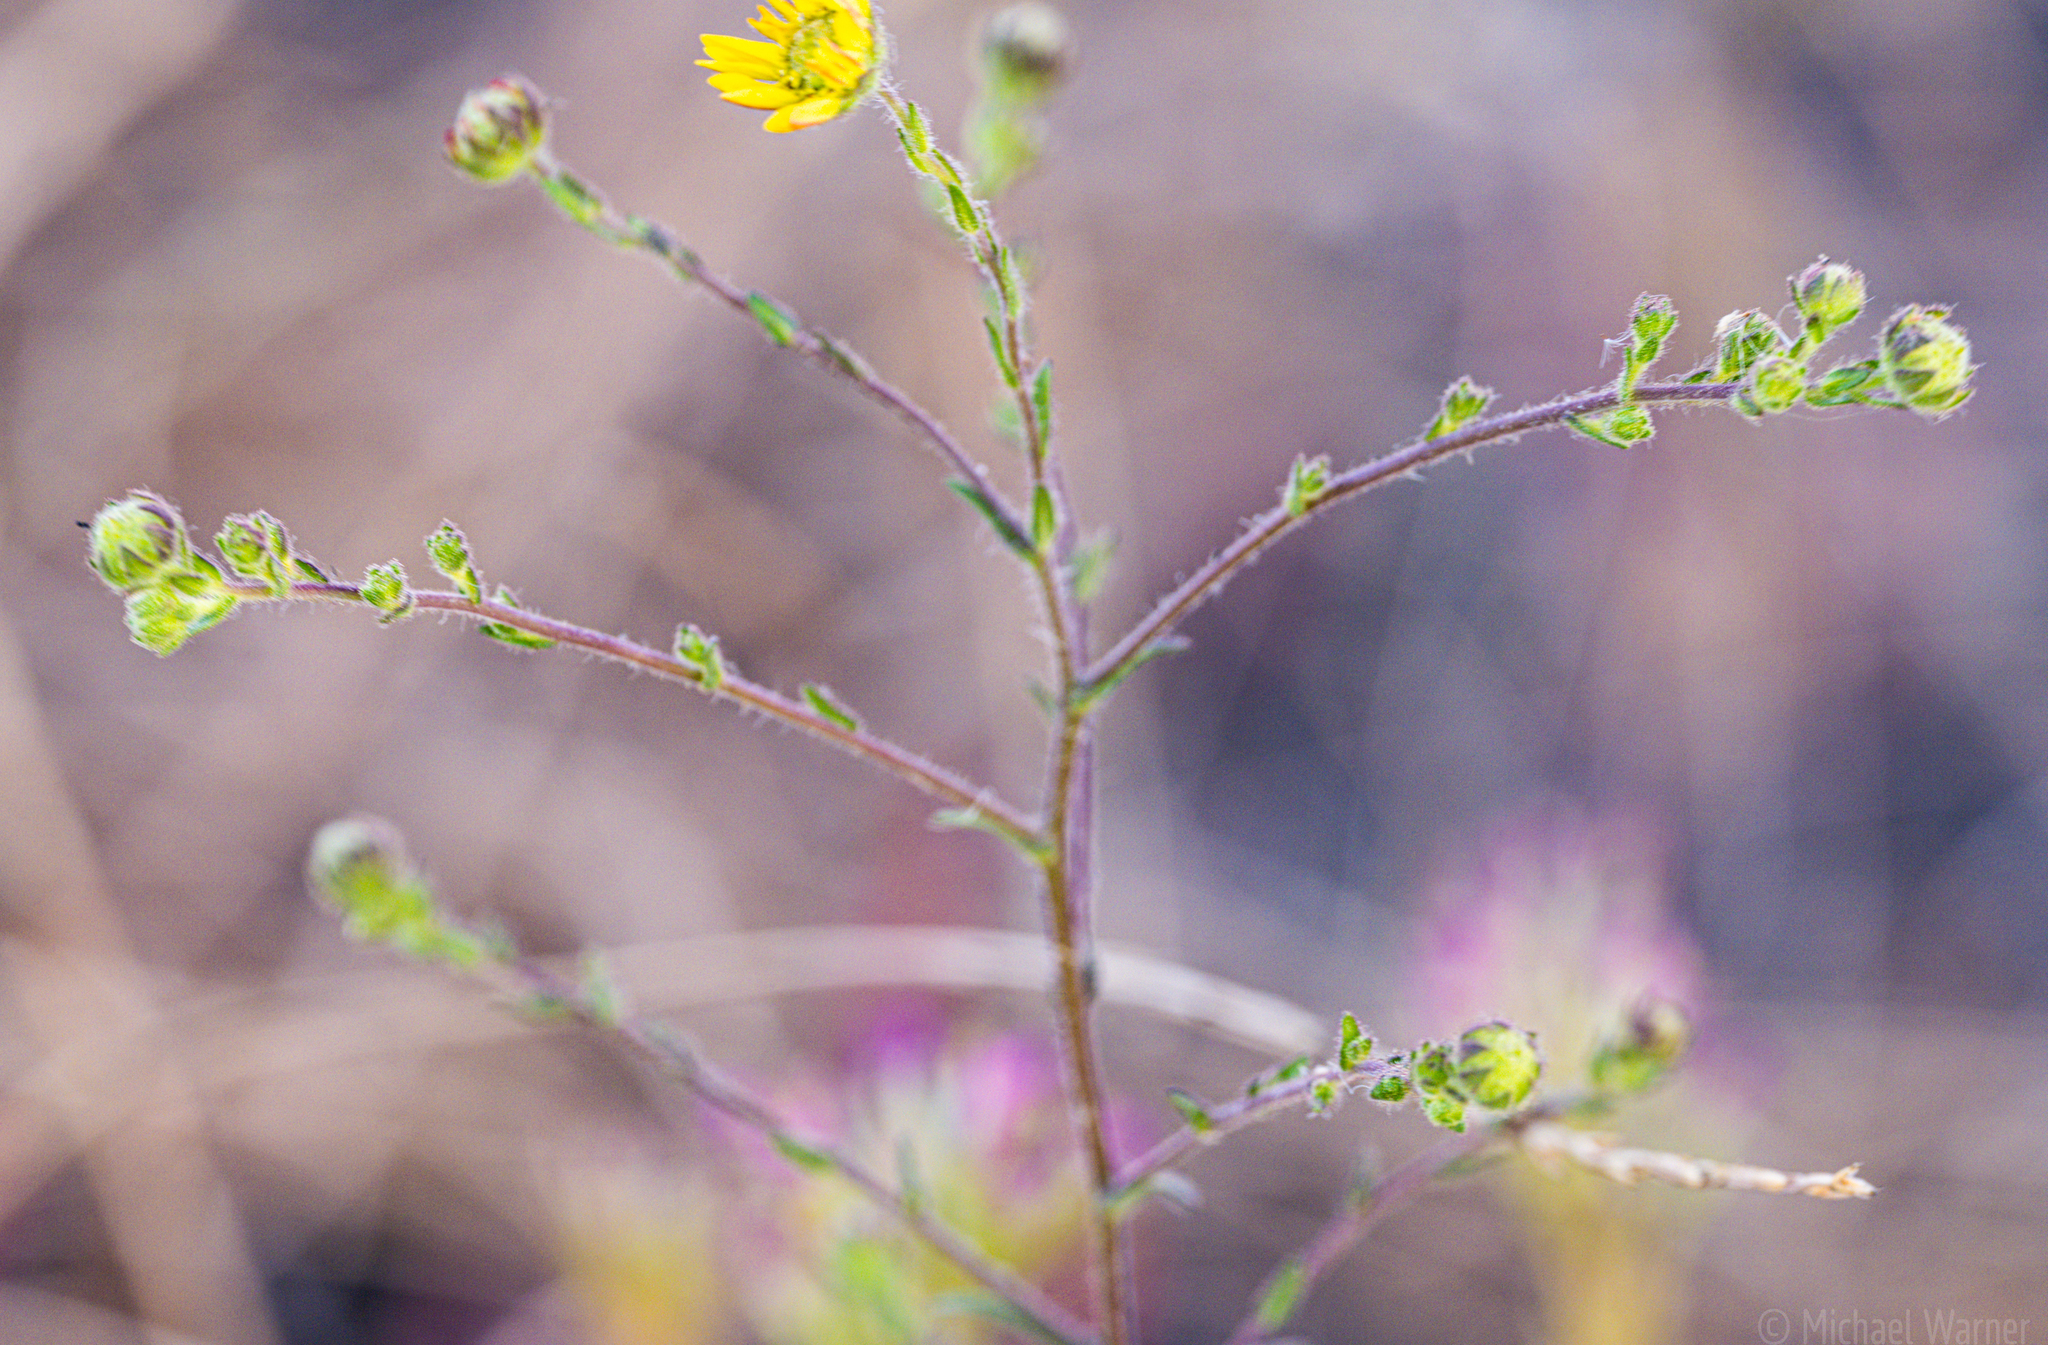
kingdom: Plantae
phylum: Tracheophyta
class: Magnoliopsida
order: Asterales
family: Asteraceae
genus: Hemizonia
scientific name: Hemizonia congesta
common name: Hayfield tarweed
